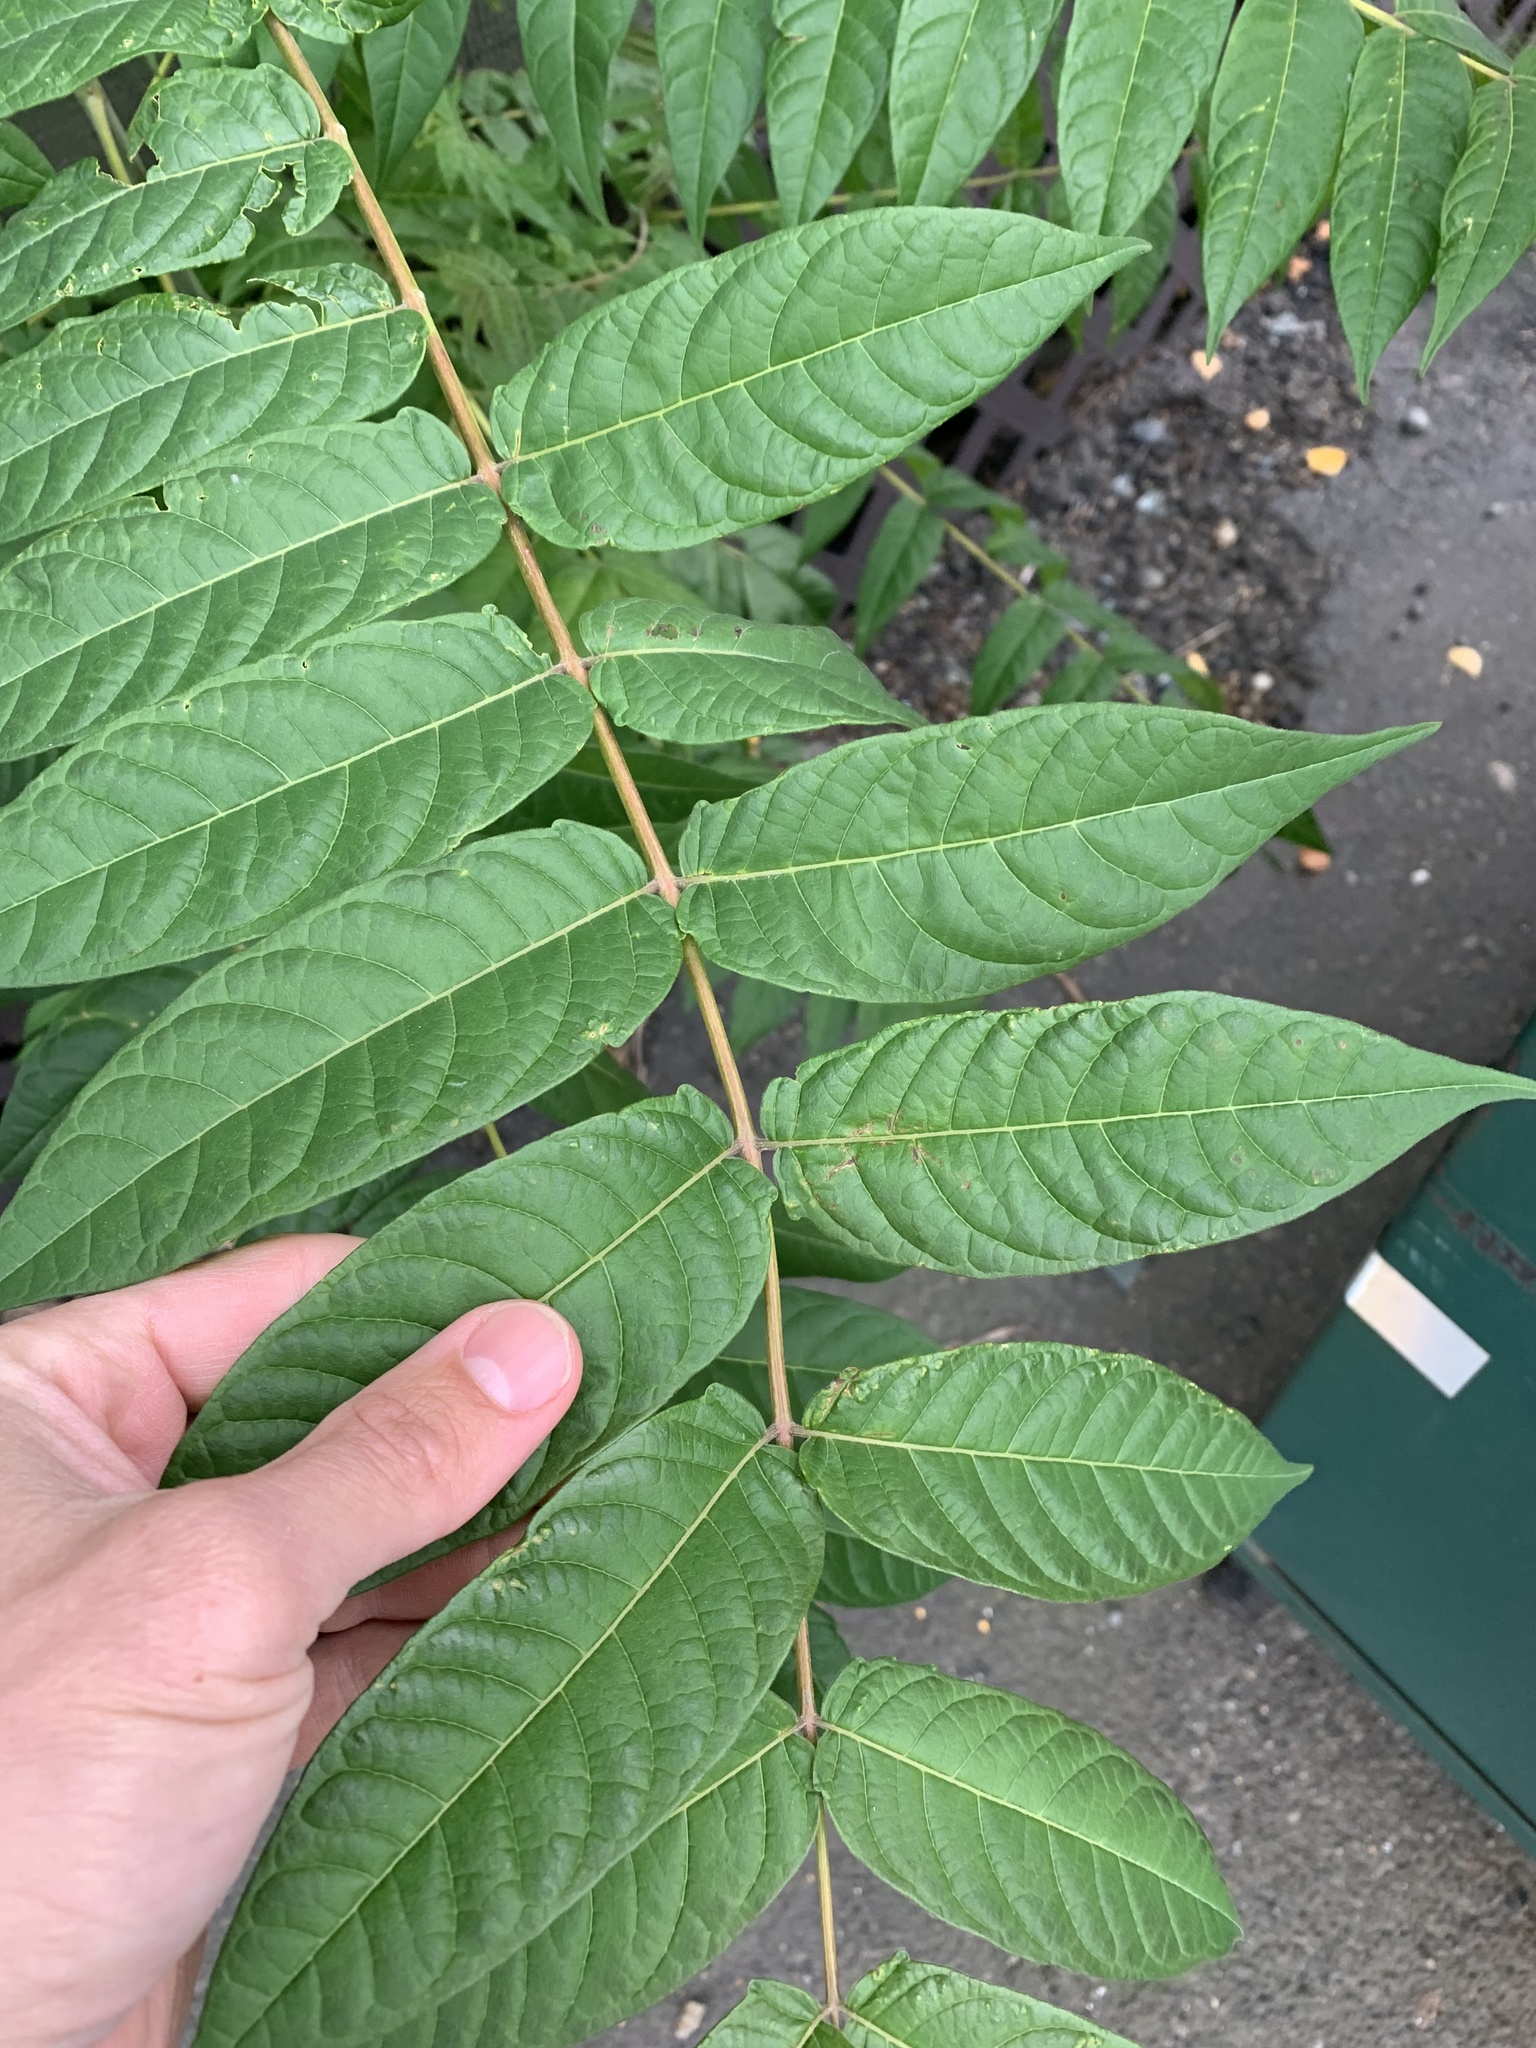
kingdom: Plantae
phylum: Tracheophyta
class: Magnoliopsida
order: Sapindales
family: Simaroubaceae
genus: Ailanthus
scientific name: Ailanthus altissima
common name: Tree-of-heaven
